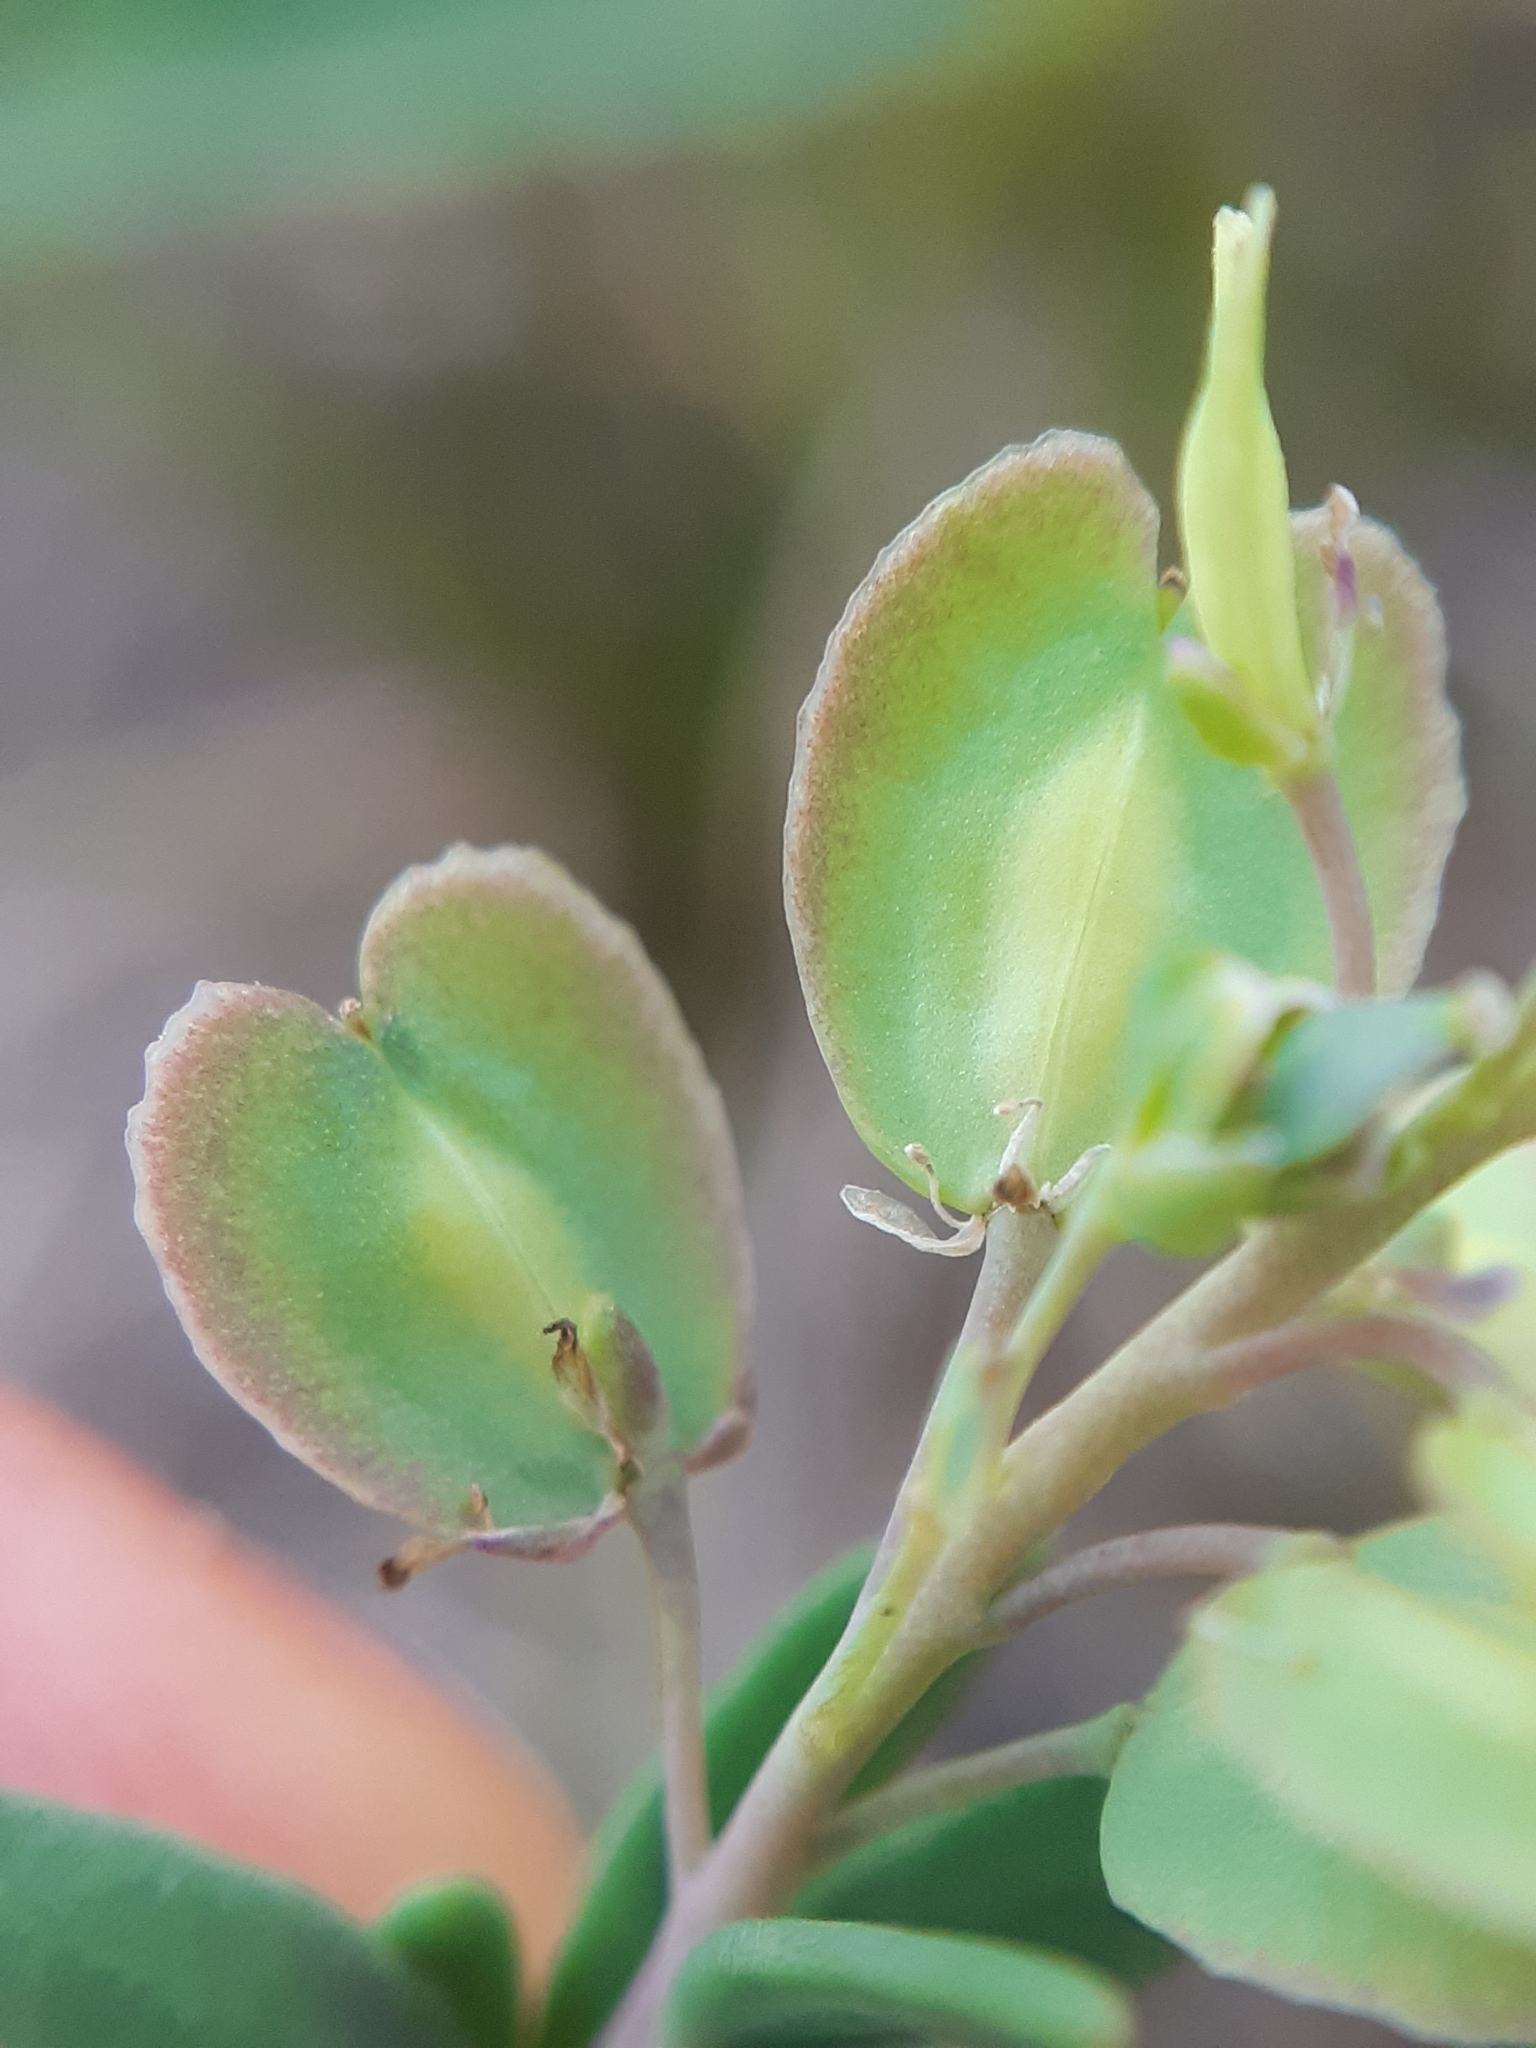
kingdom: Plantae
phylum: Tracheophyta
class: Magnoliopsida
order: Brassicales
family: Brassicaceae
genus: Aethionema
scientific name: Aethionema saxatile
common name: Burnt candytuft
